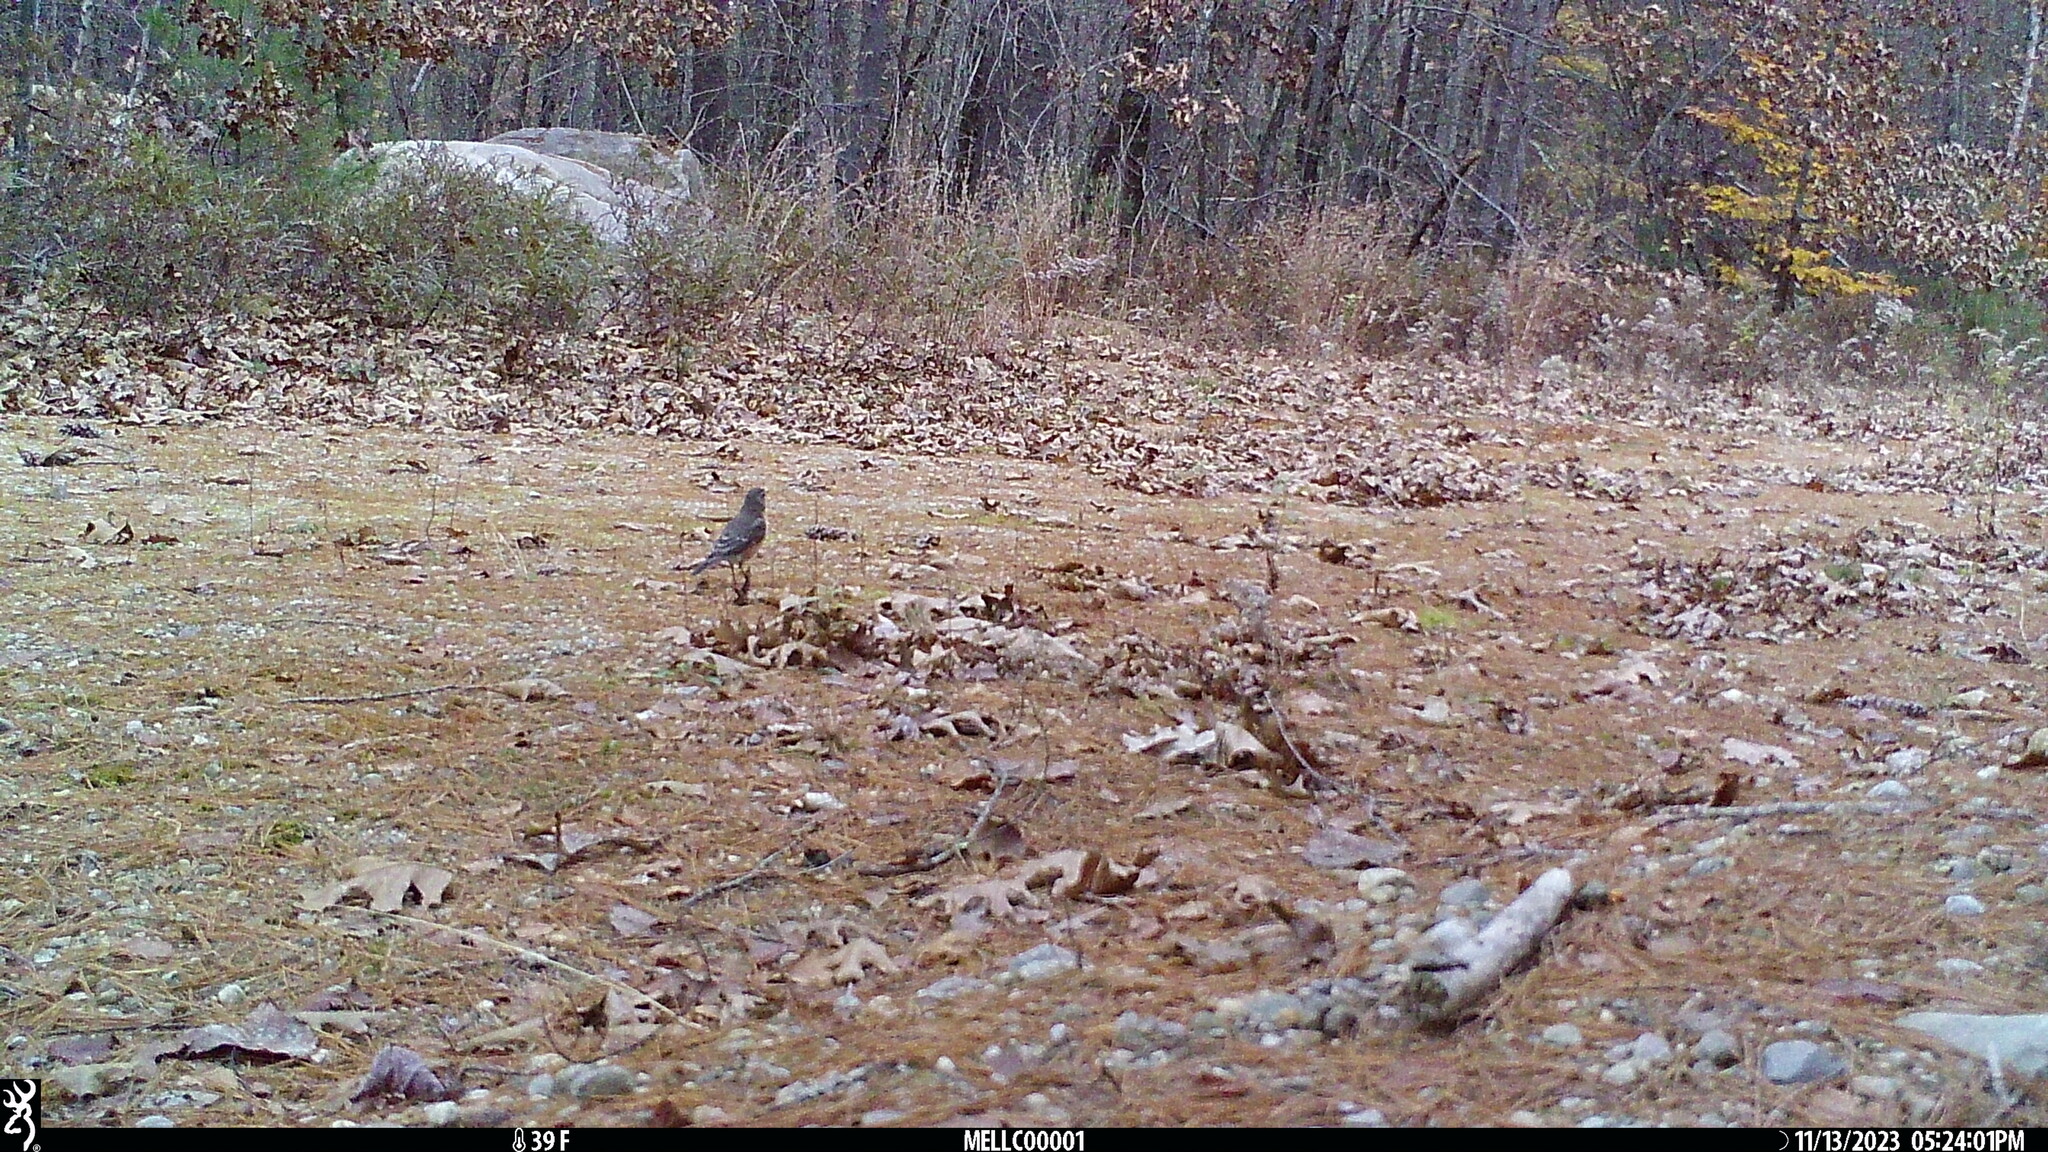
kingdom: Animalia
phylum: Chordata
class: Aves
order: Passeriformes
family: Turdidae
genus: Turdus
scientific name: Turdus migratorius
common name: American robin
